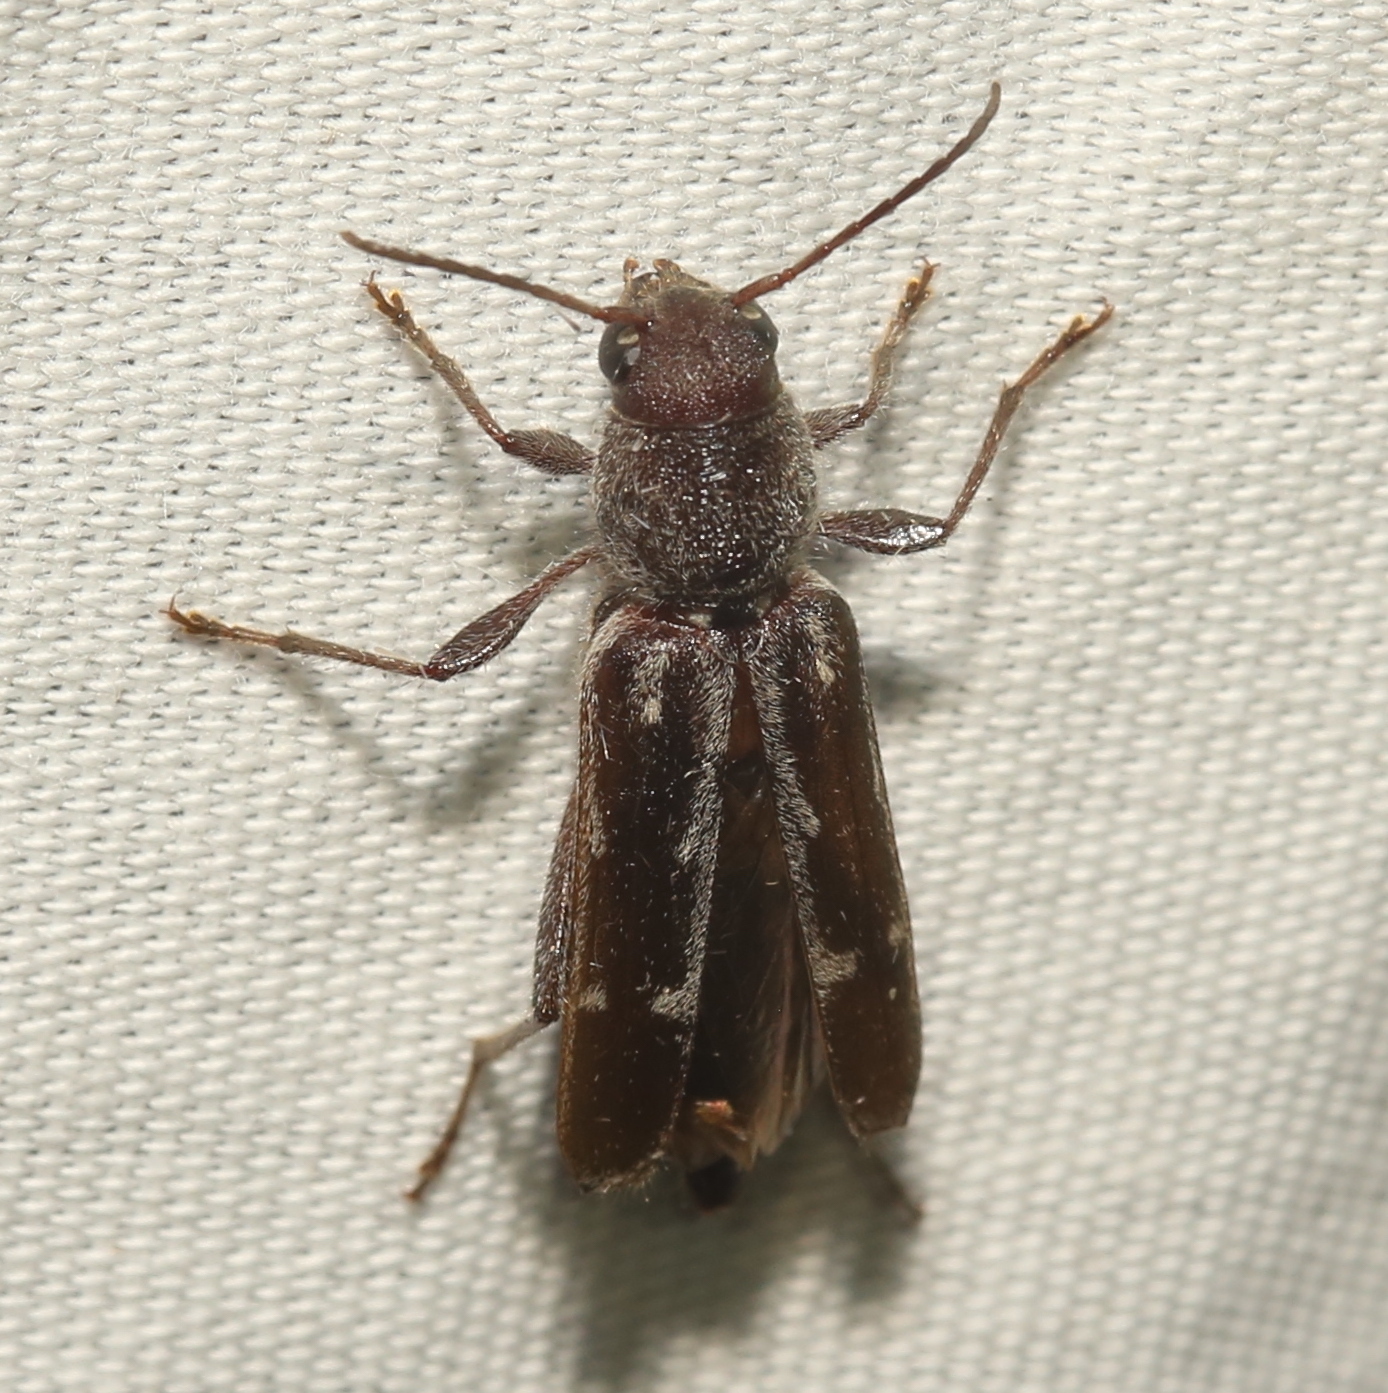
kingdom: Animalia
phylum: Arthropoda
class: Insecta
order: Coleoptera
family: Cerambycidae
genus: Xylotrechus
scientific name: Xylotrechus sagittatus
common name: Arrowhead borer
